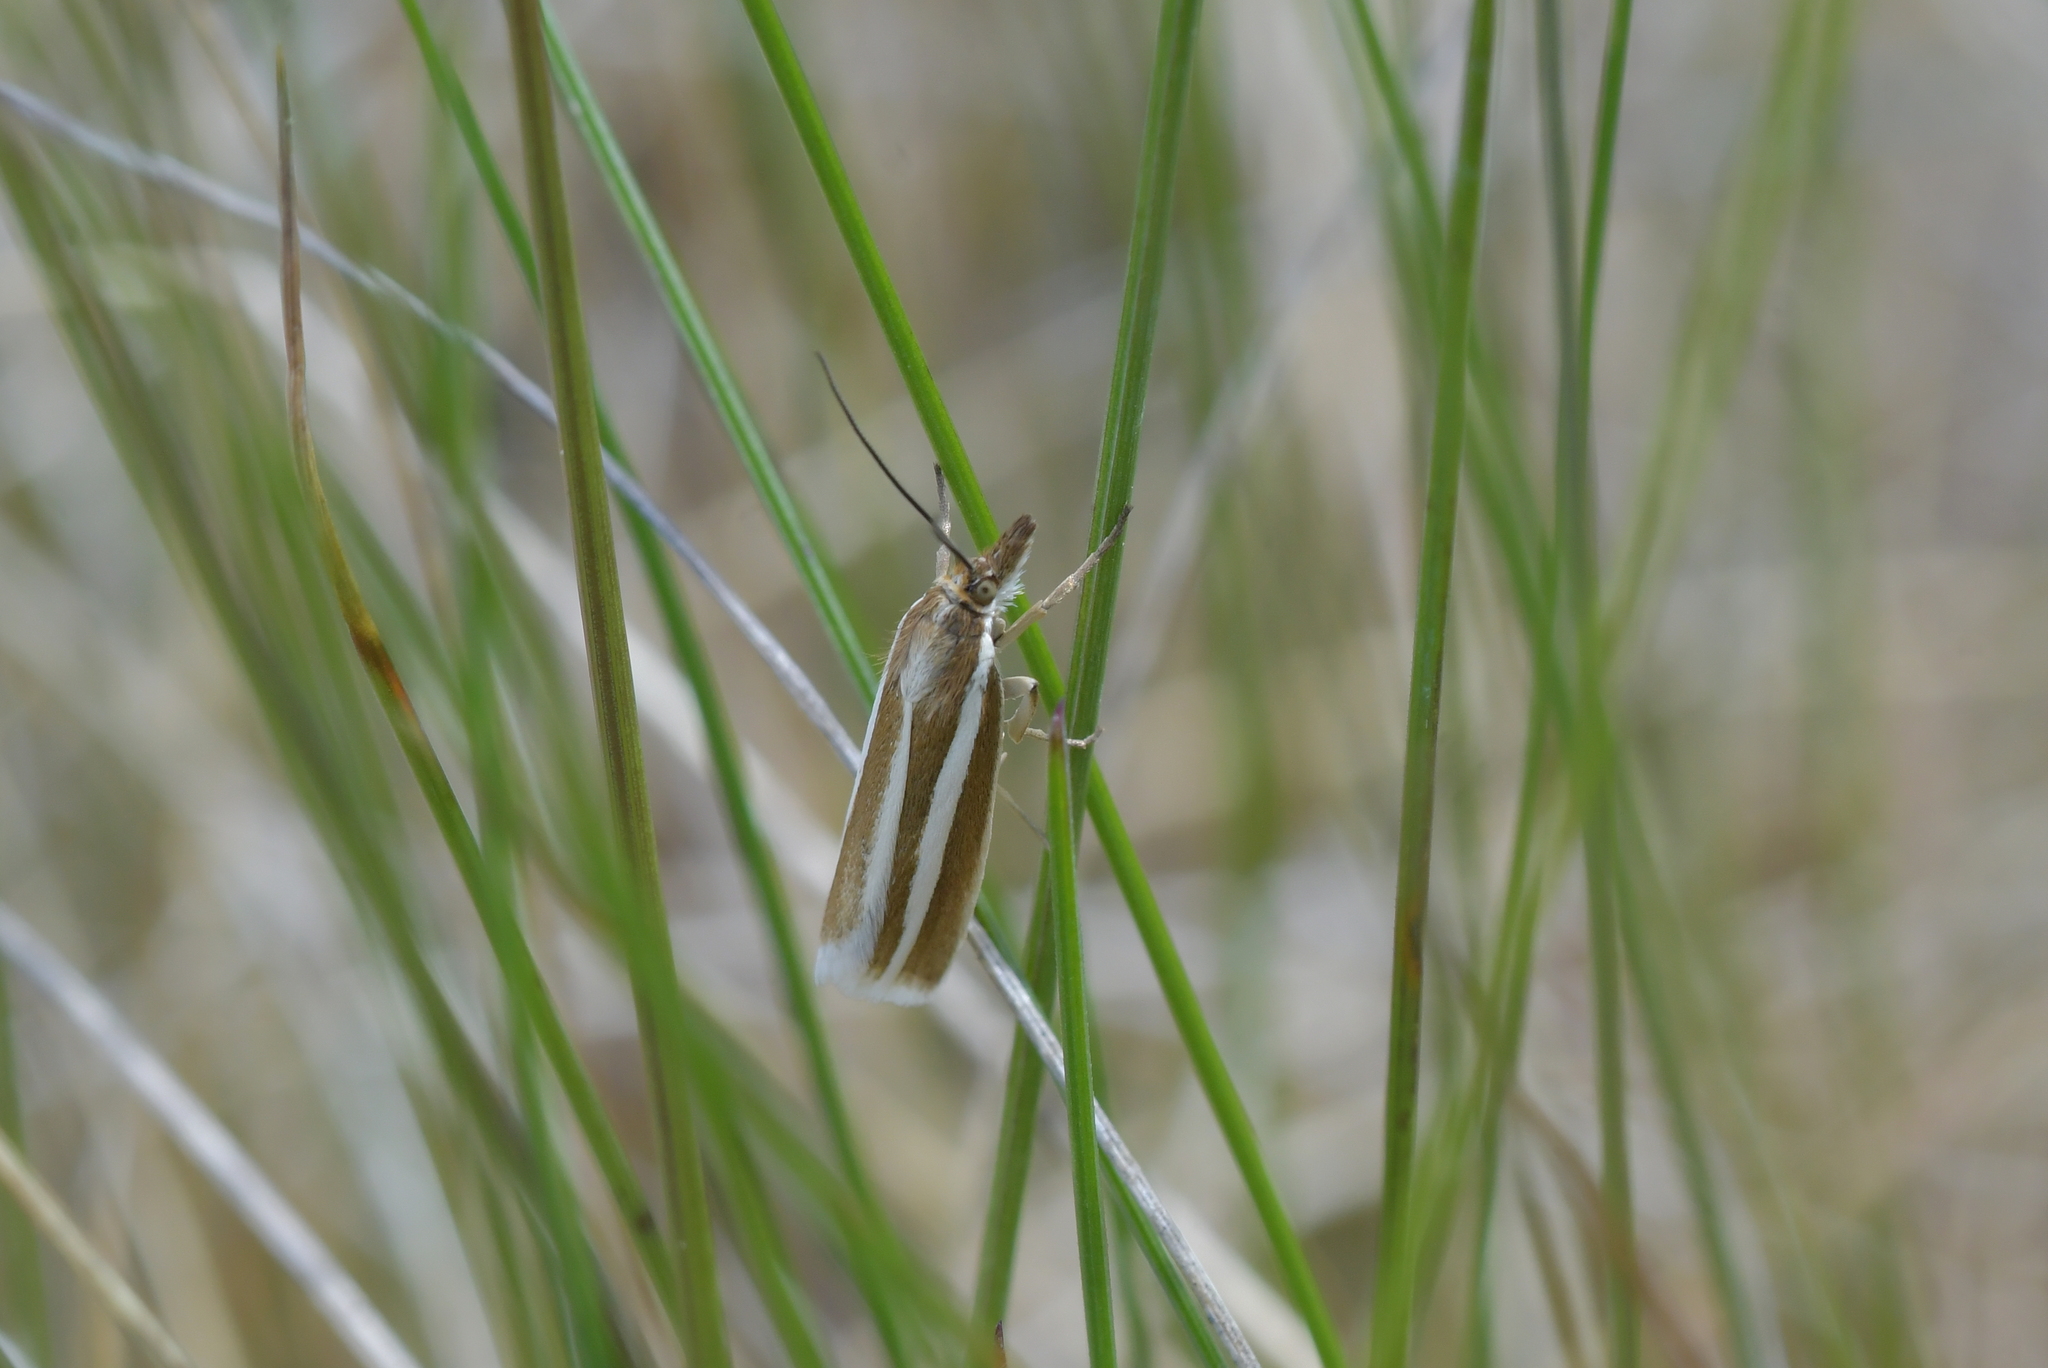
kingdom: Animalia
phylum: Arthropoda
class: Insecta
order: Lepidoptera
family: Crambidae
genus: Orocrambus
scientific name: Orocrambus aethonellus
